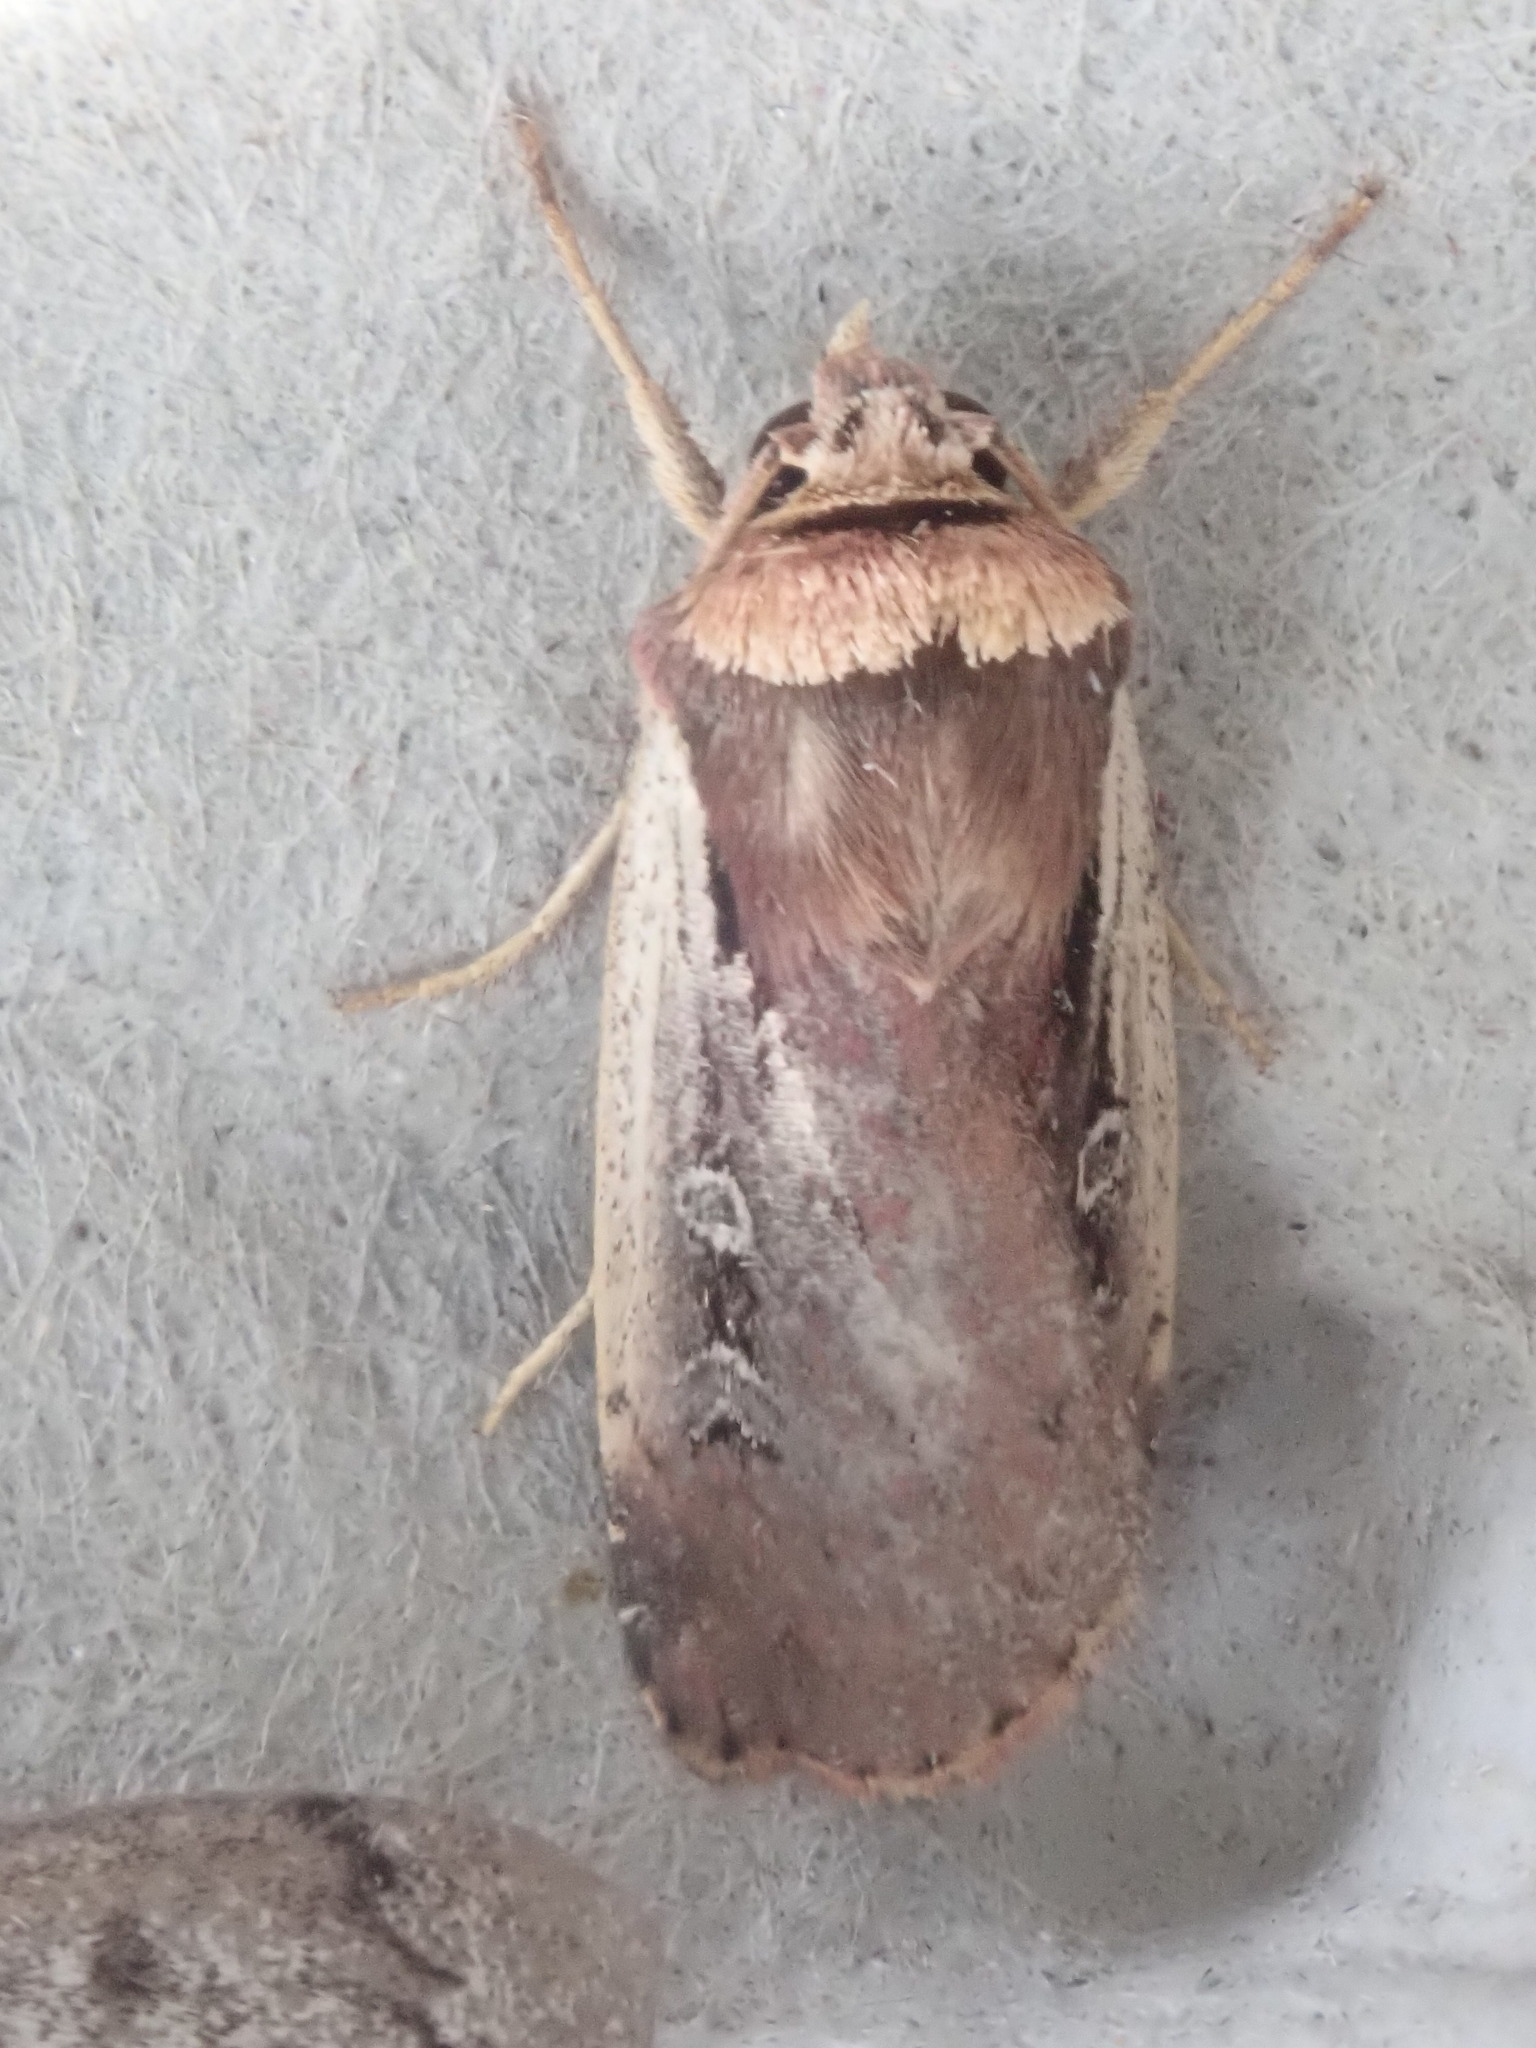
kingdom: Animalia
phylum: Arthropoda
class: Insecta
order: Lepidoptera
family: Noctuidae
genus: Ochropleura
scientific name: Ochropleura implecta
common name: Flame-shouldered dart
